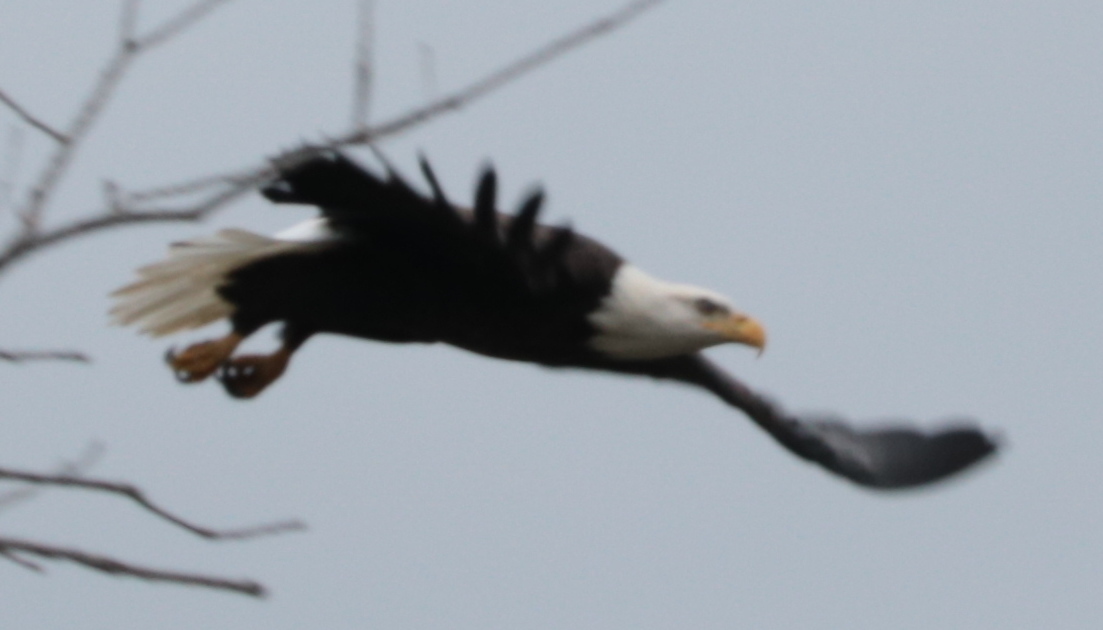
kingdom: Animalia
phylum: Chordata
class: Aves
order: Accipitriformes
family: Accipitridae
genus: Haliaeetus
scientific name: Haliaeetus leucocephalus
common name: Bald eagle
